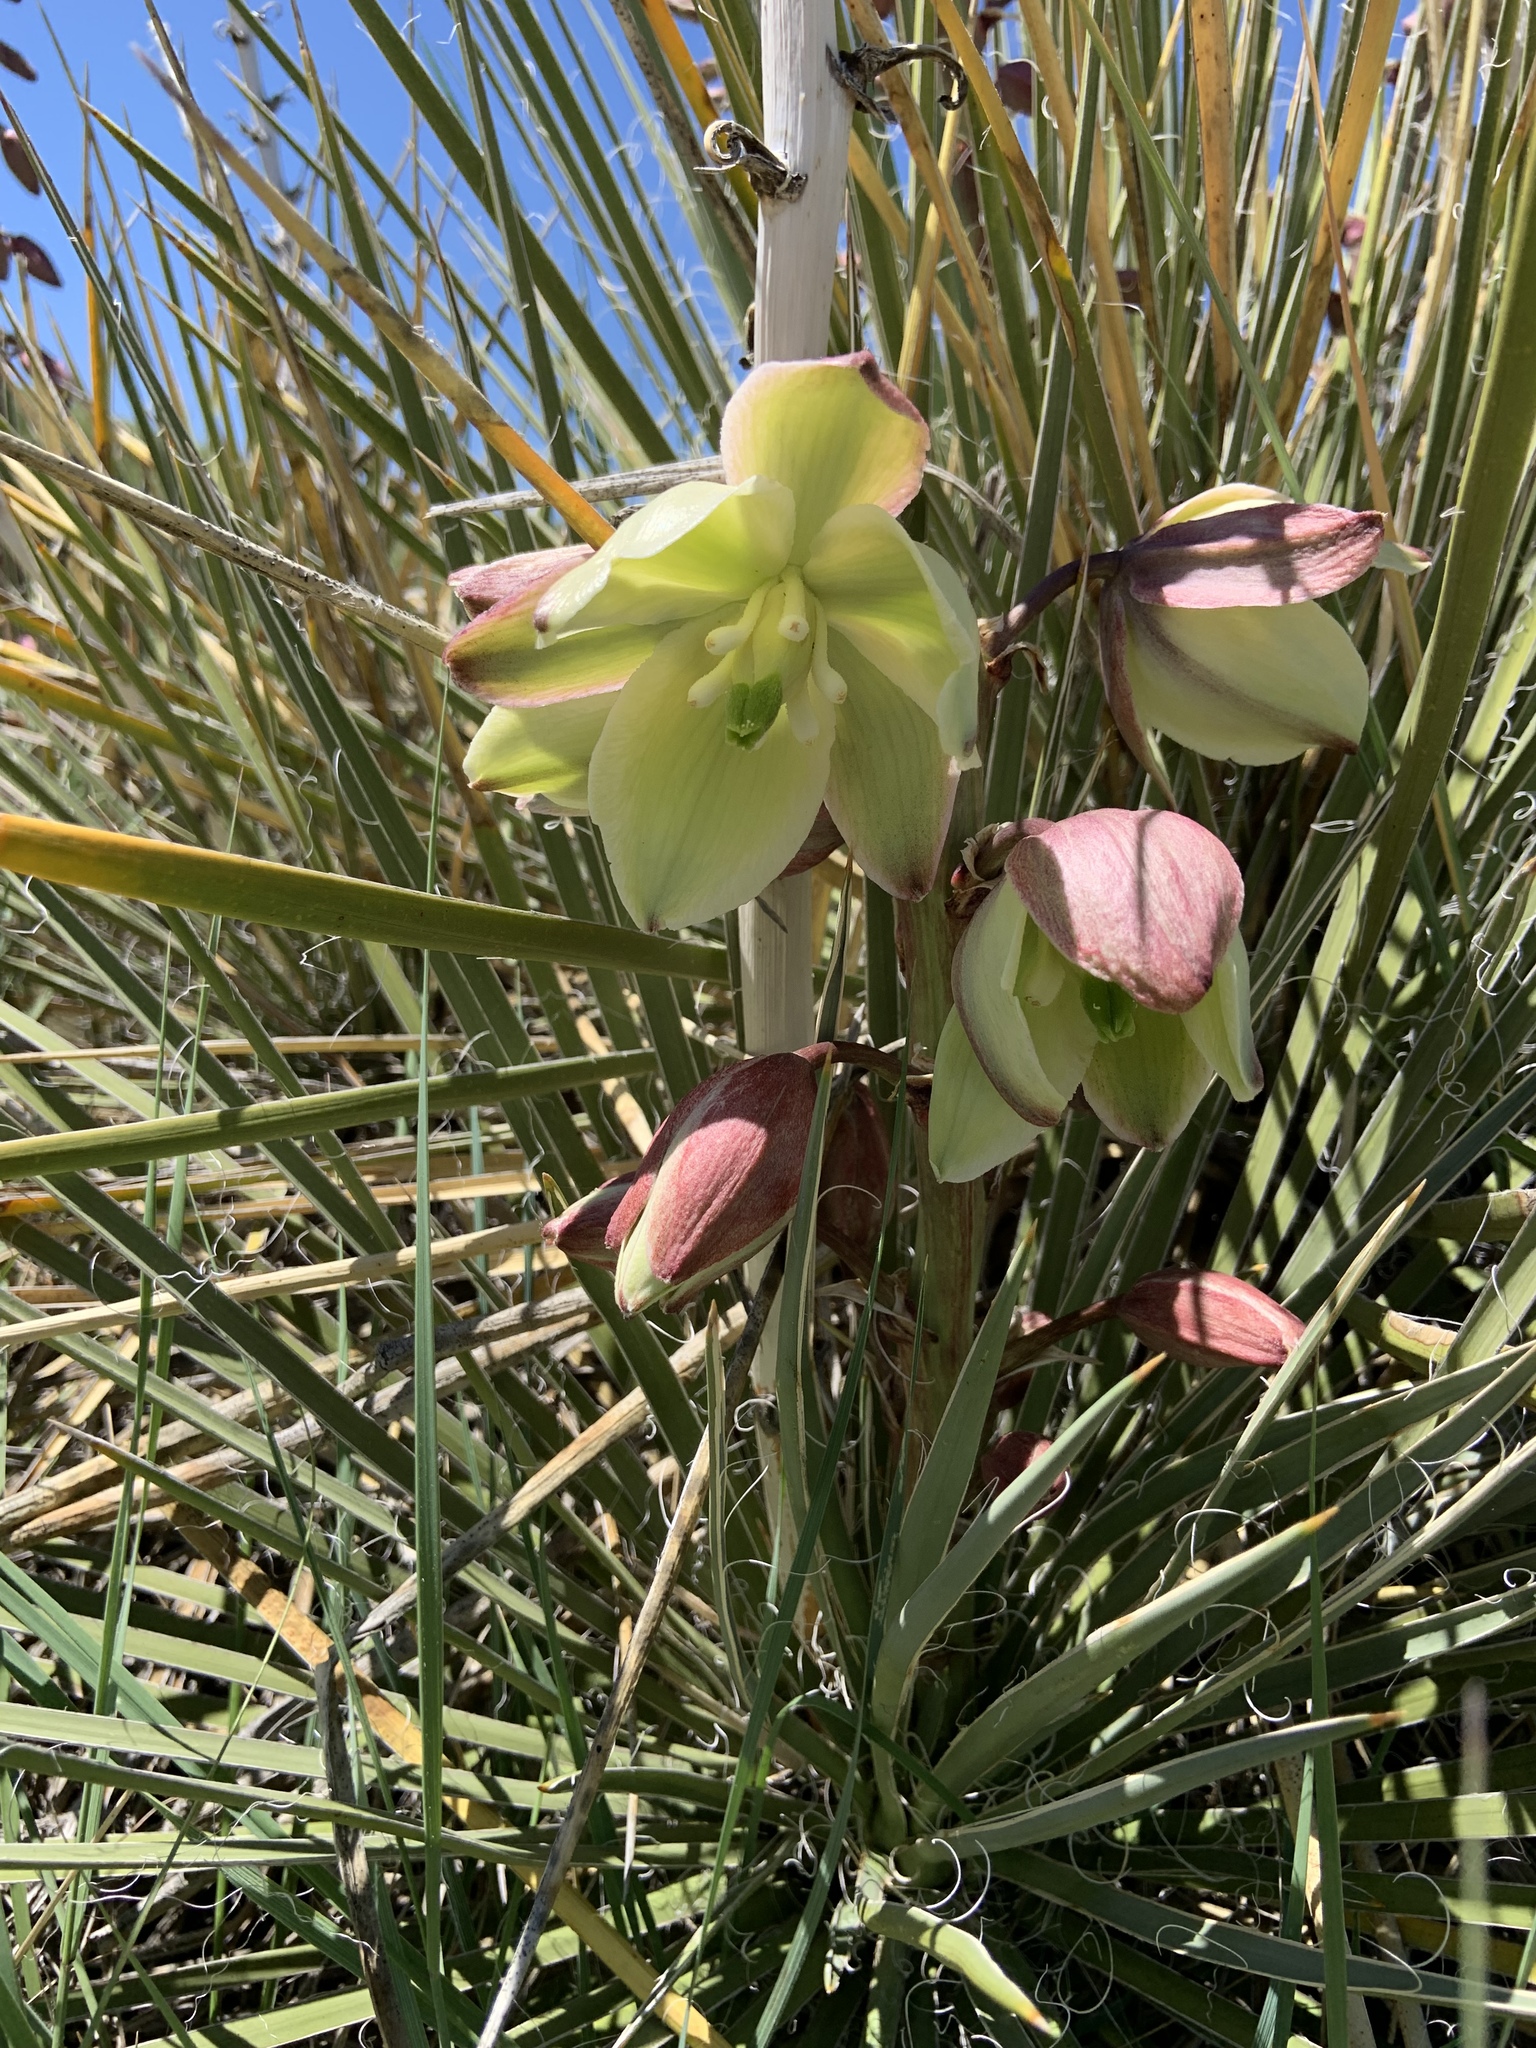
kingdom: Plantae
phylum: Tracheophyta
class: Liliopsida
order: Asparagales
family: Asparagaceae
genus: Yucca
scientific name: Yucca glauca
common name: Great plains yucca
